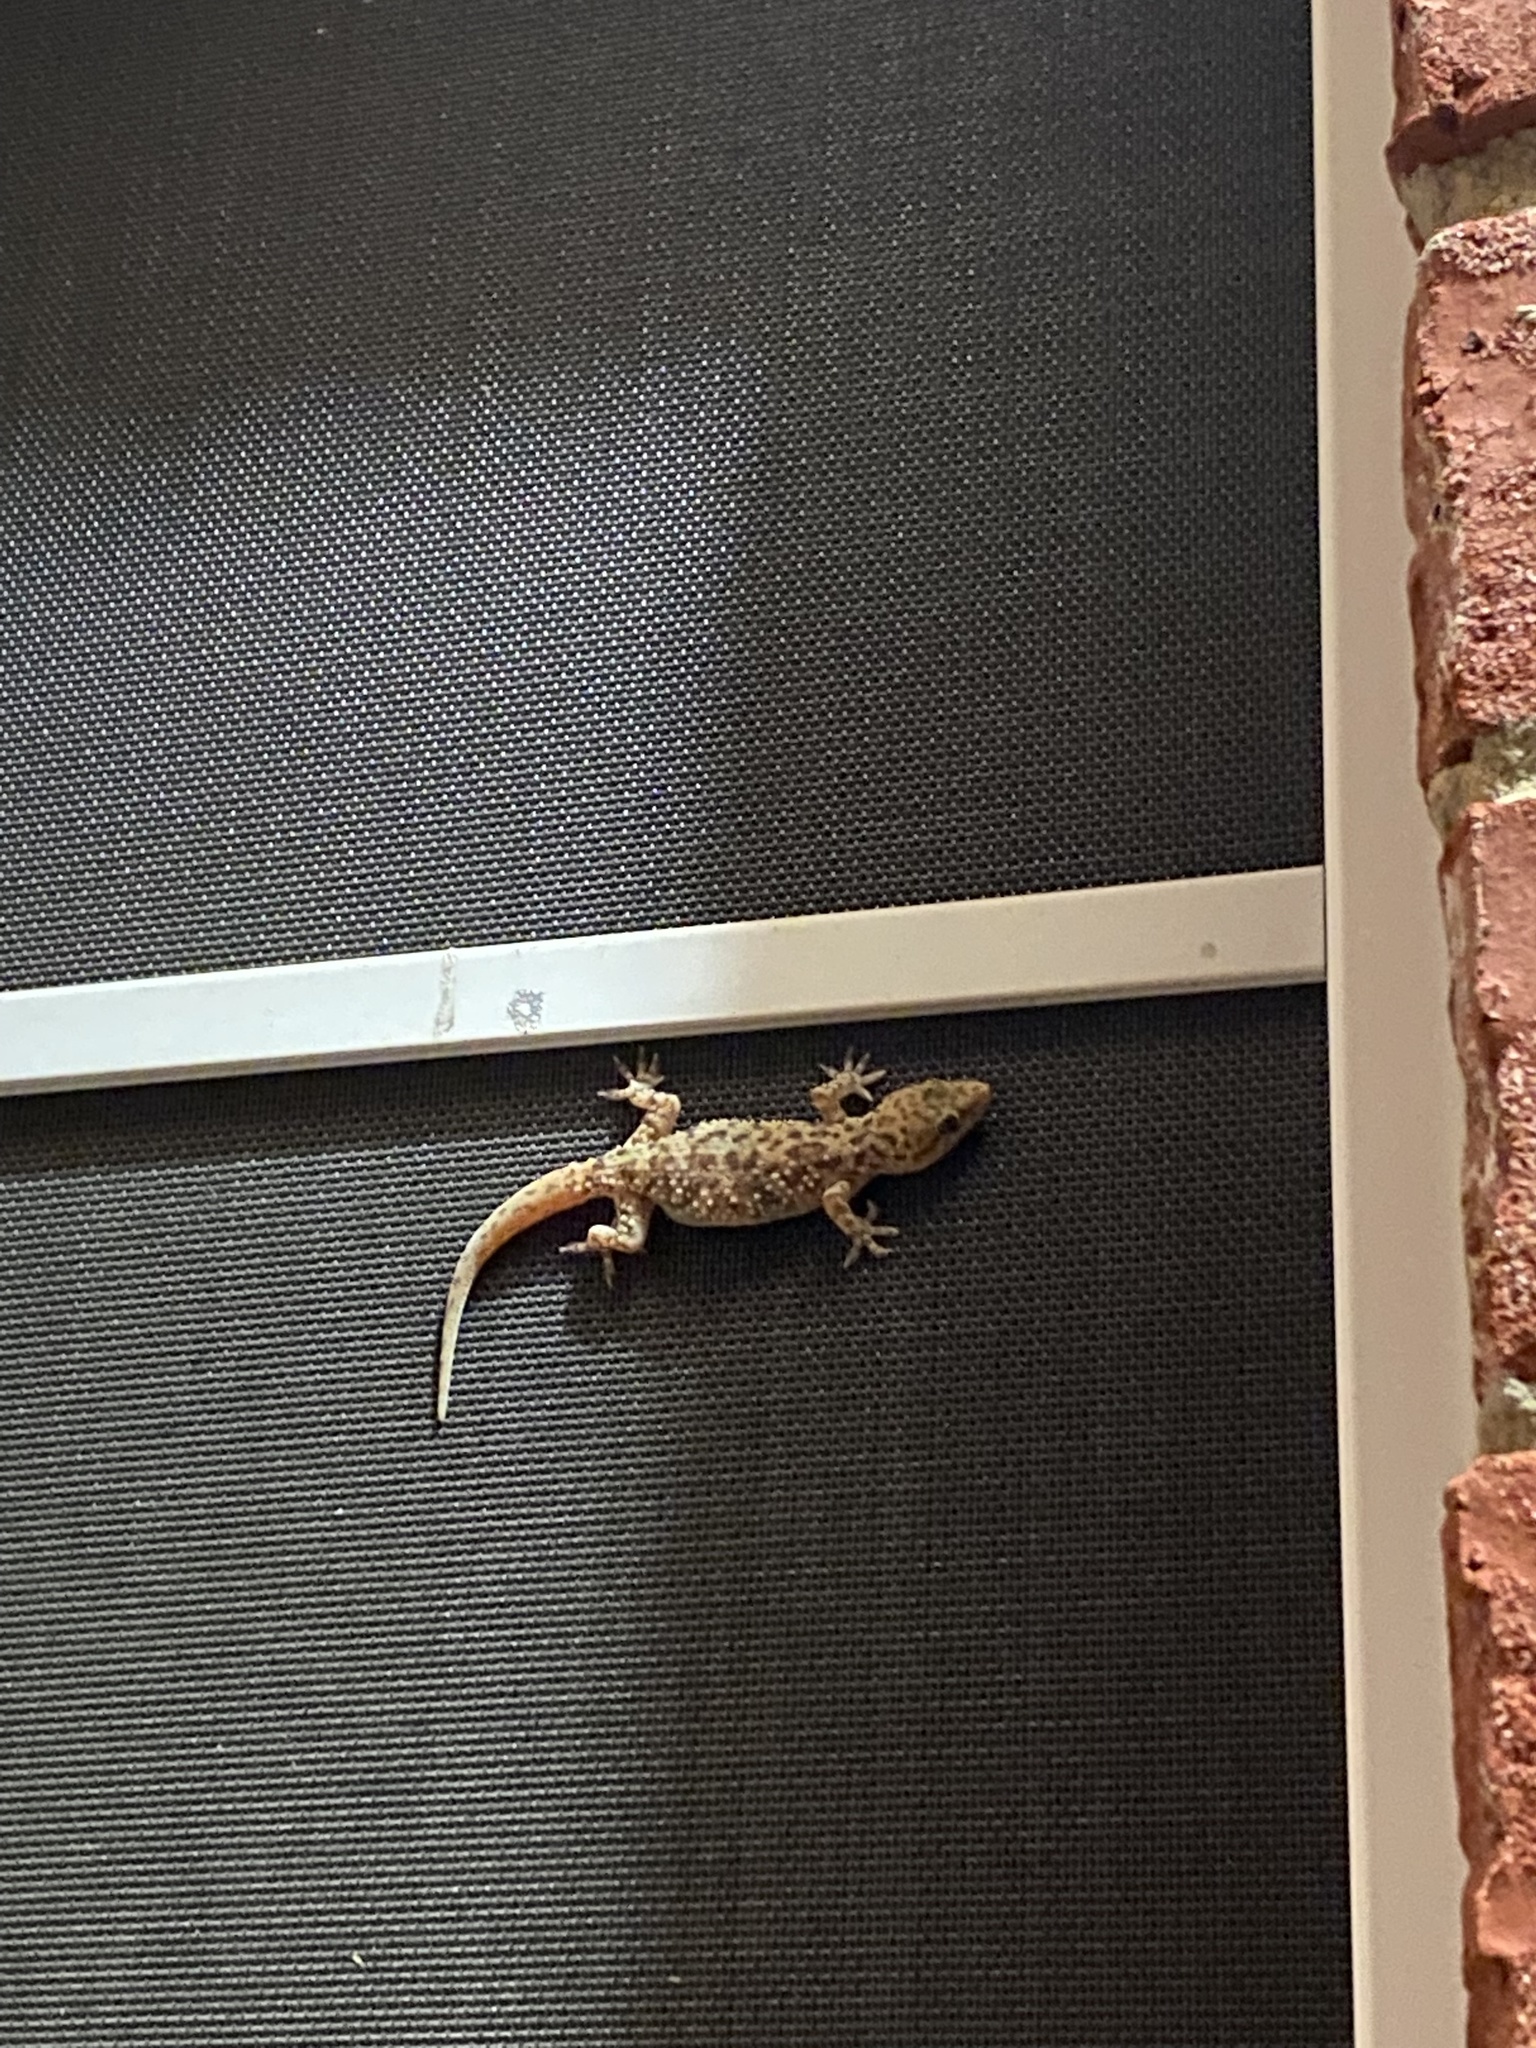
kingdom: Animalia
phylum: Chordata
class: Squamata
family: Gekkonidae
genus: Hemidactylus
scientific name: Hemidactylus turcicus
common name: Turkish gecko
